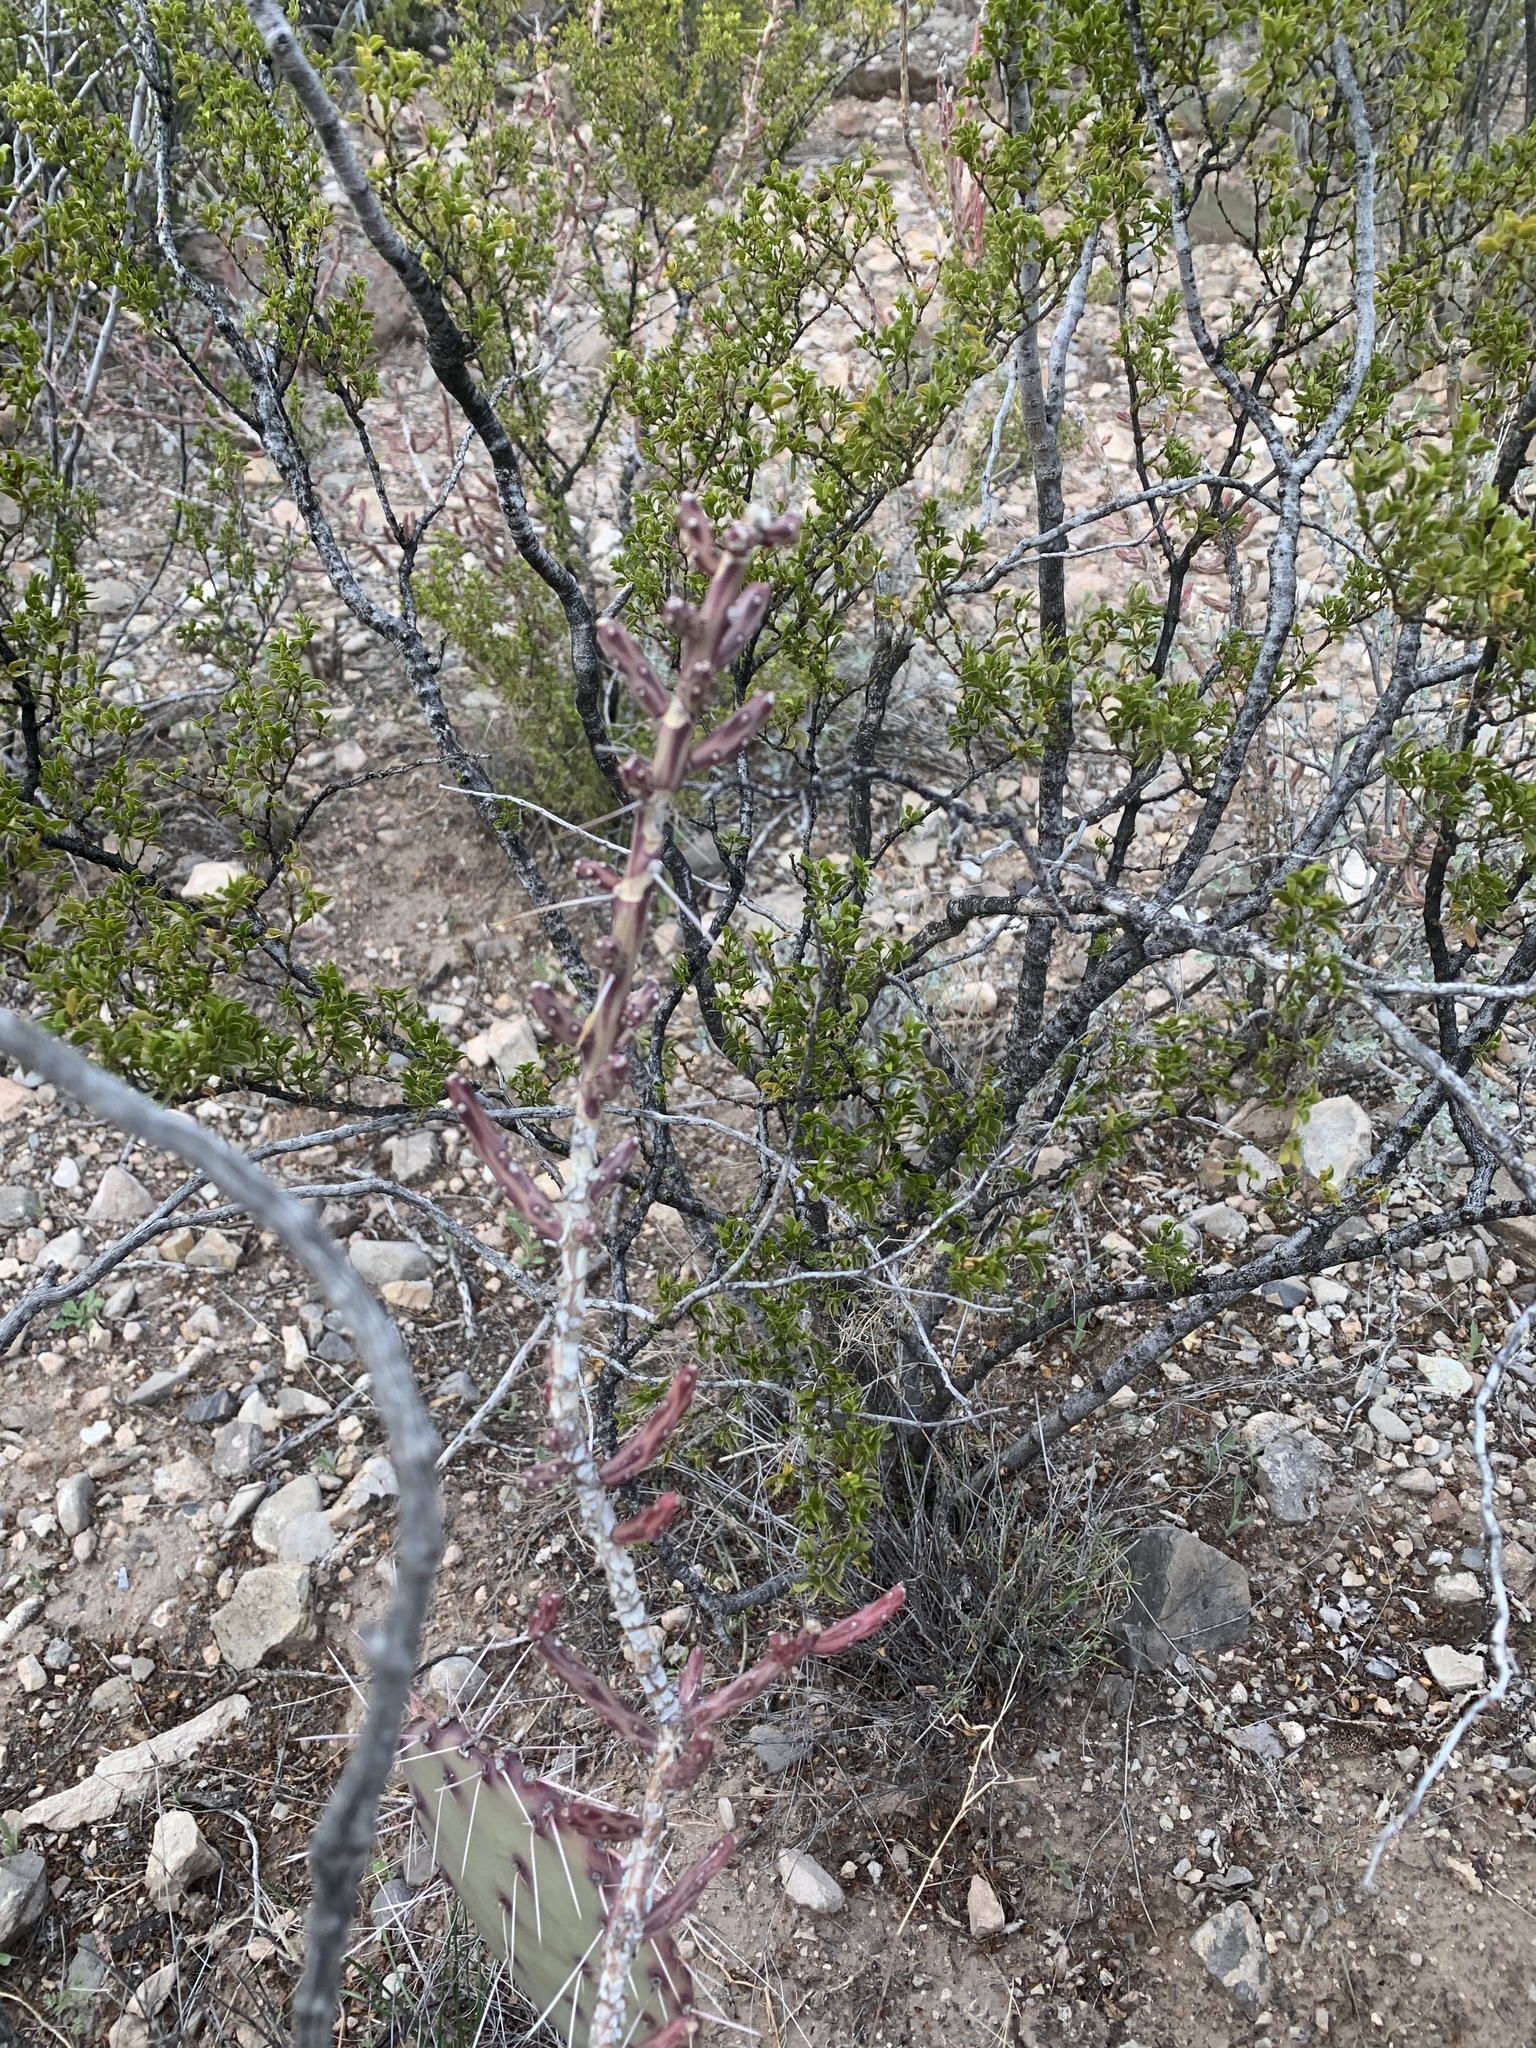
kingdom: Plantae
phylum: Tracheophyta
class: Magnoliopsida
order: Caryophyllales
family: Cactaceae
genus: Cylindropuntia
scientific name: Cylindropuntia leptocaulis
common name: Christmas cactus
